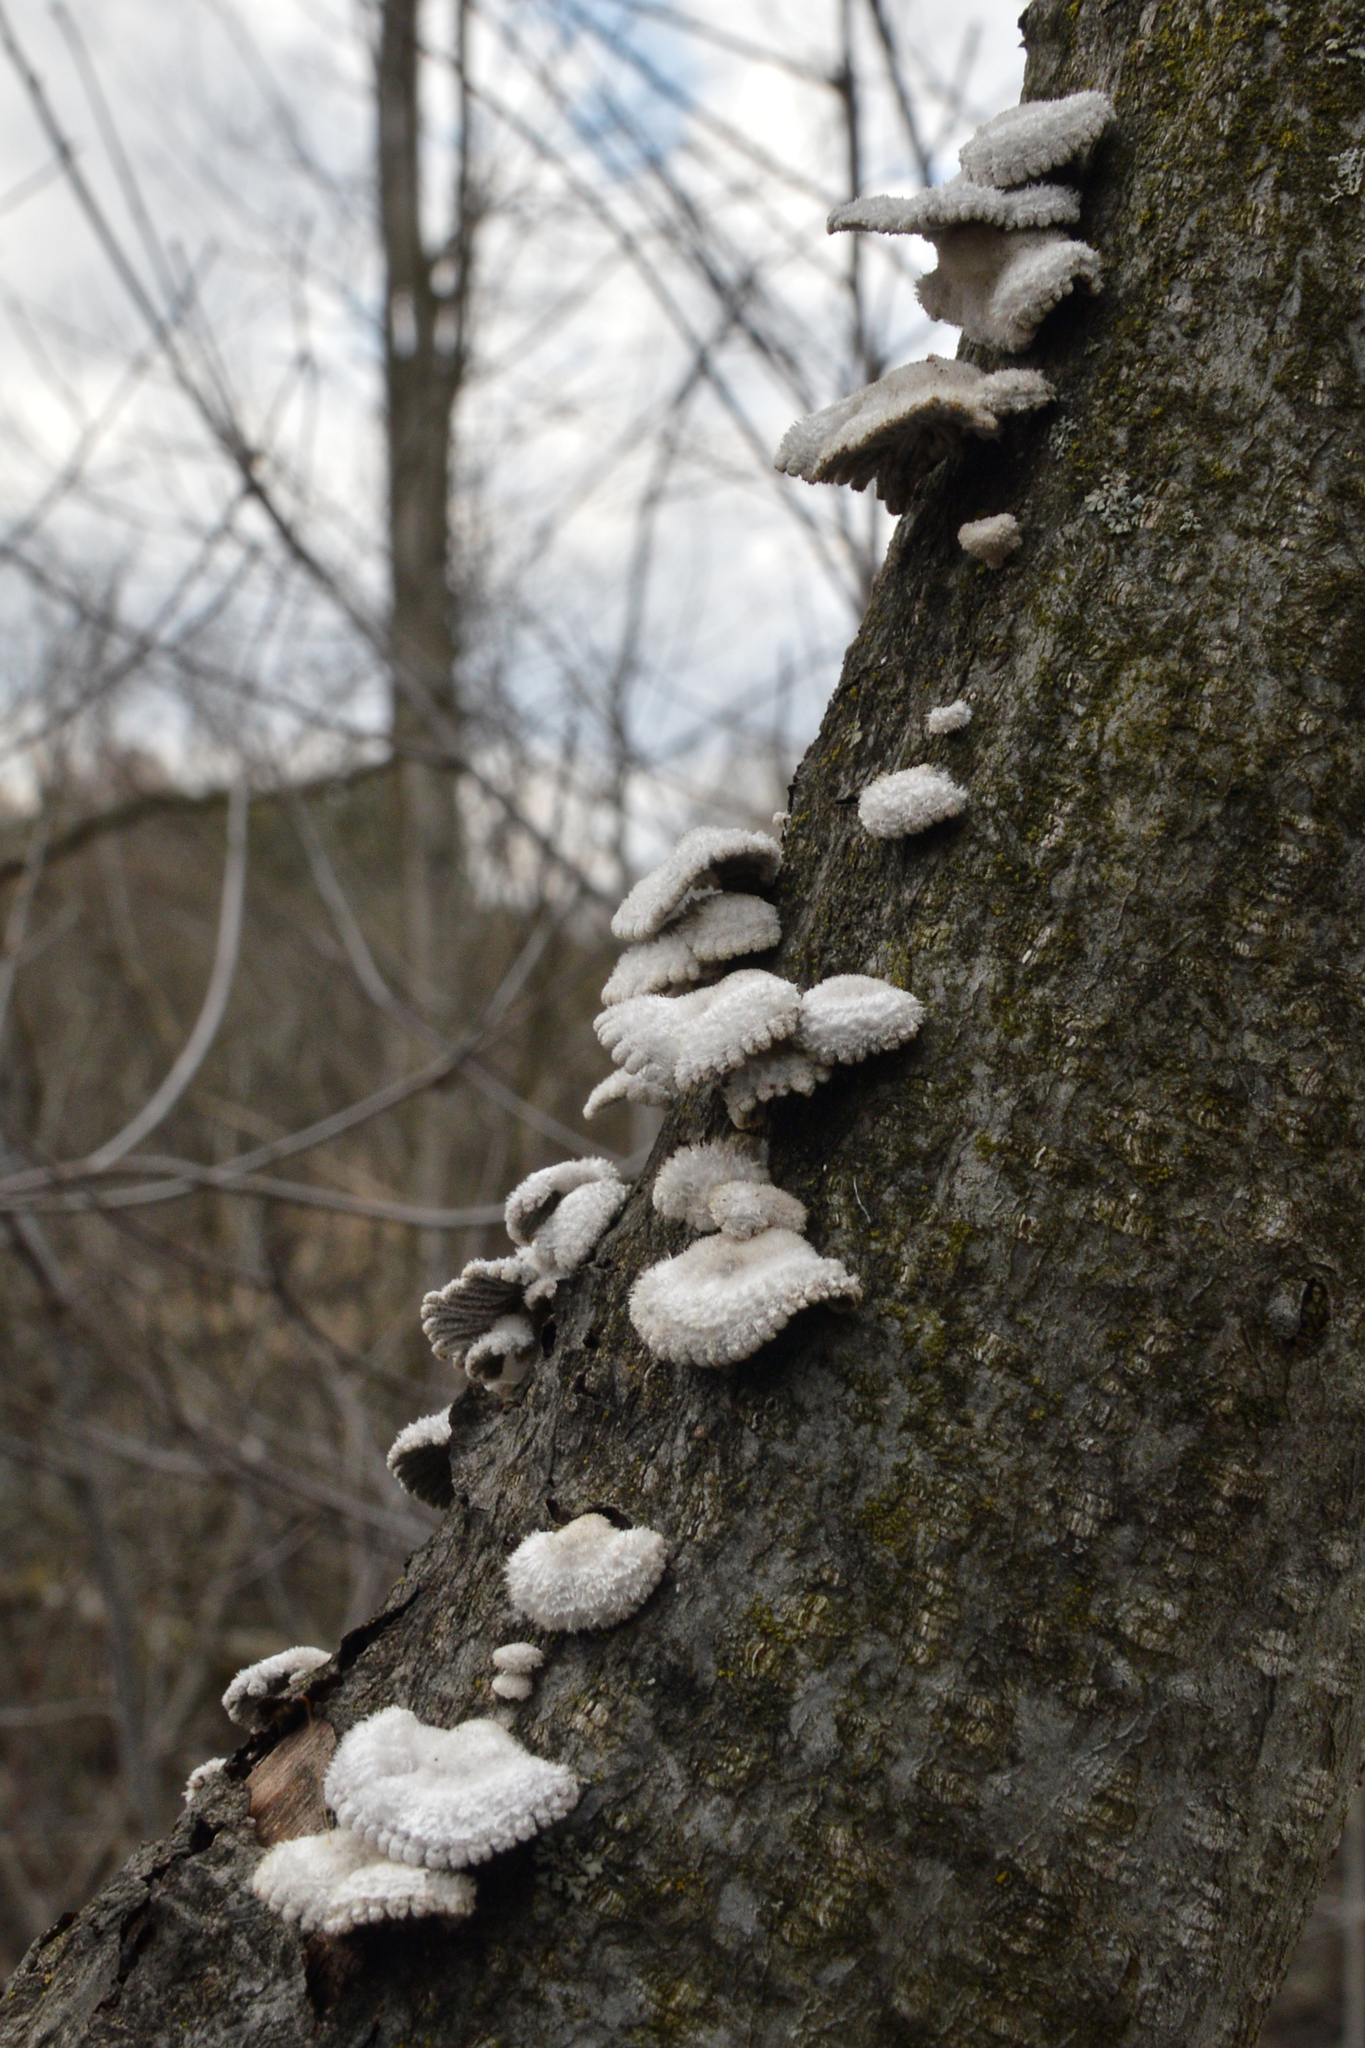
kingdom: Fungi
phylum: Basidiomycota
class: Agaricomycetes
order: Agaricales
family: Schizophyllaceae
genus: Schizophyllum
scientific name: Schizophyllum commune
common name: Common porecrust
